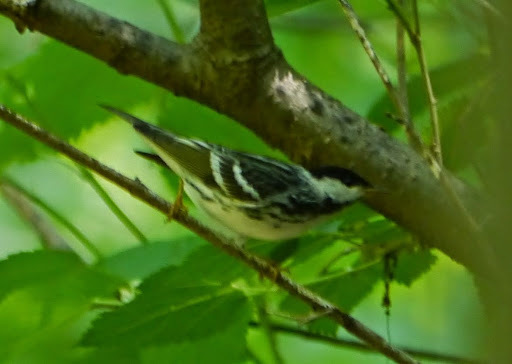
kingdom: Animalia
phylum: Chordata
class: Aves
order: Passeriformes
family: Parulidae
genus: Setophaga
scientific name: Setophaga striata
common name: Blackpoll warbler
